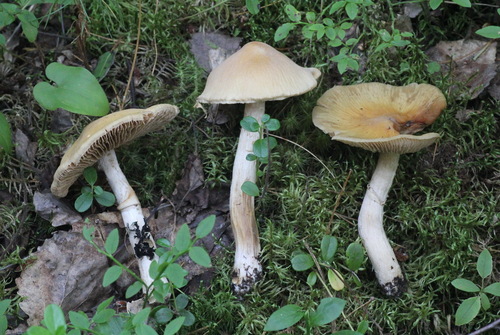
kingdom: Fungi
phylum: Basidiomycota
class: Agaricomycetes
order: Agaricales
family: Cortinariaceae
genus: Cortinarius
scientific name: Cortinarius caperatus
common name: The gypsy
